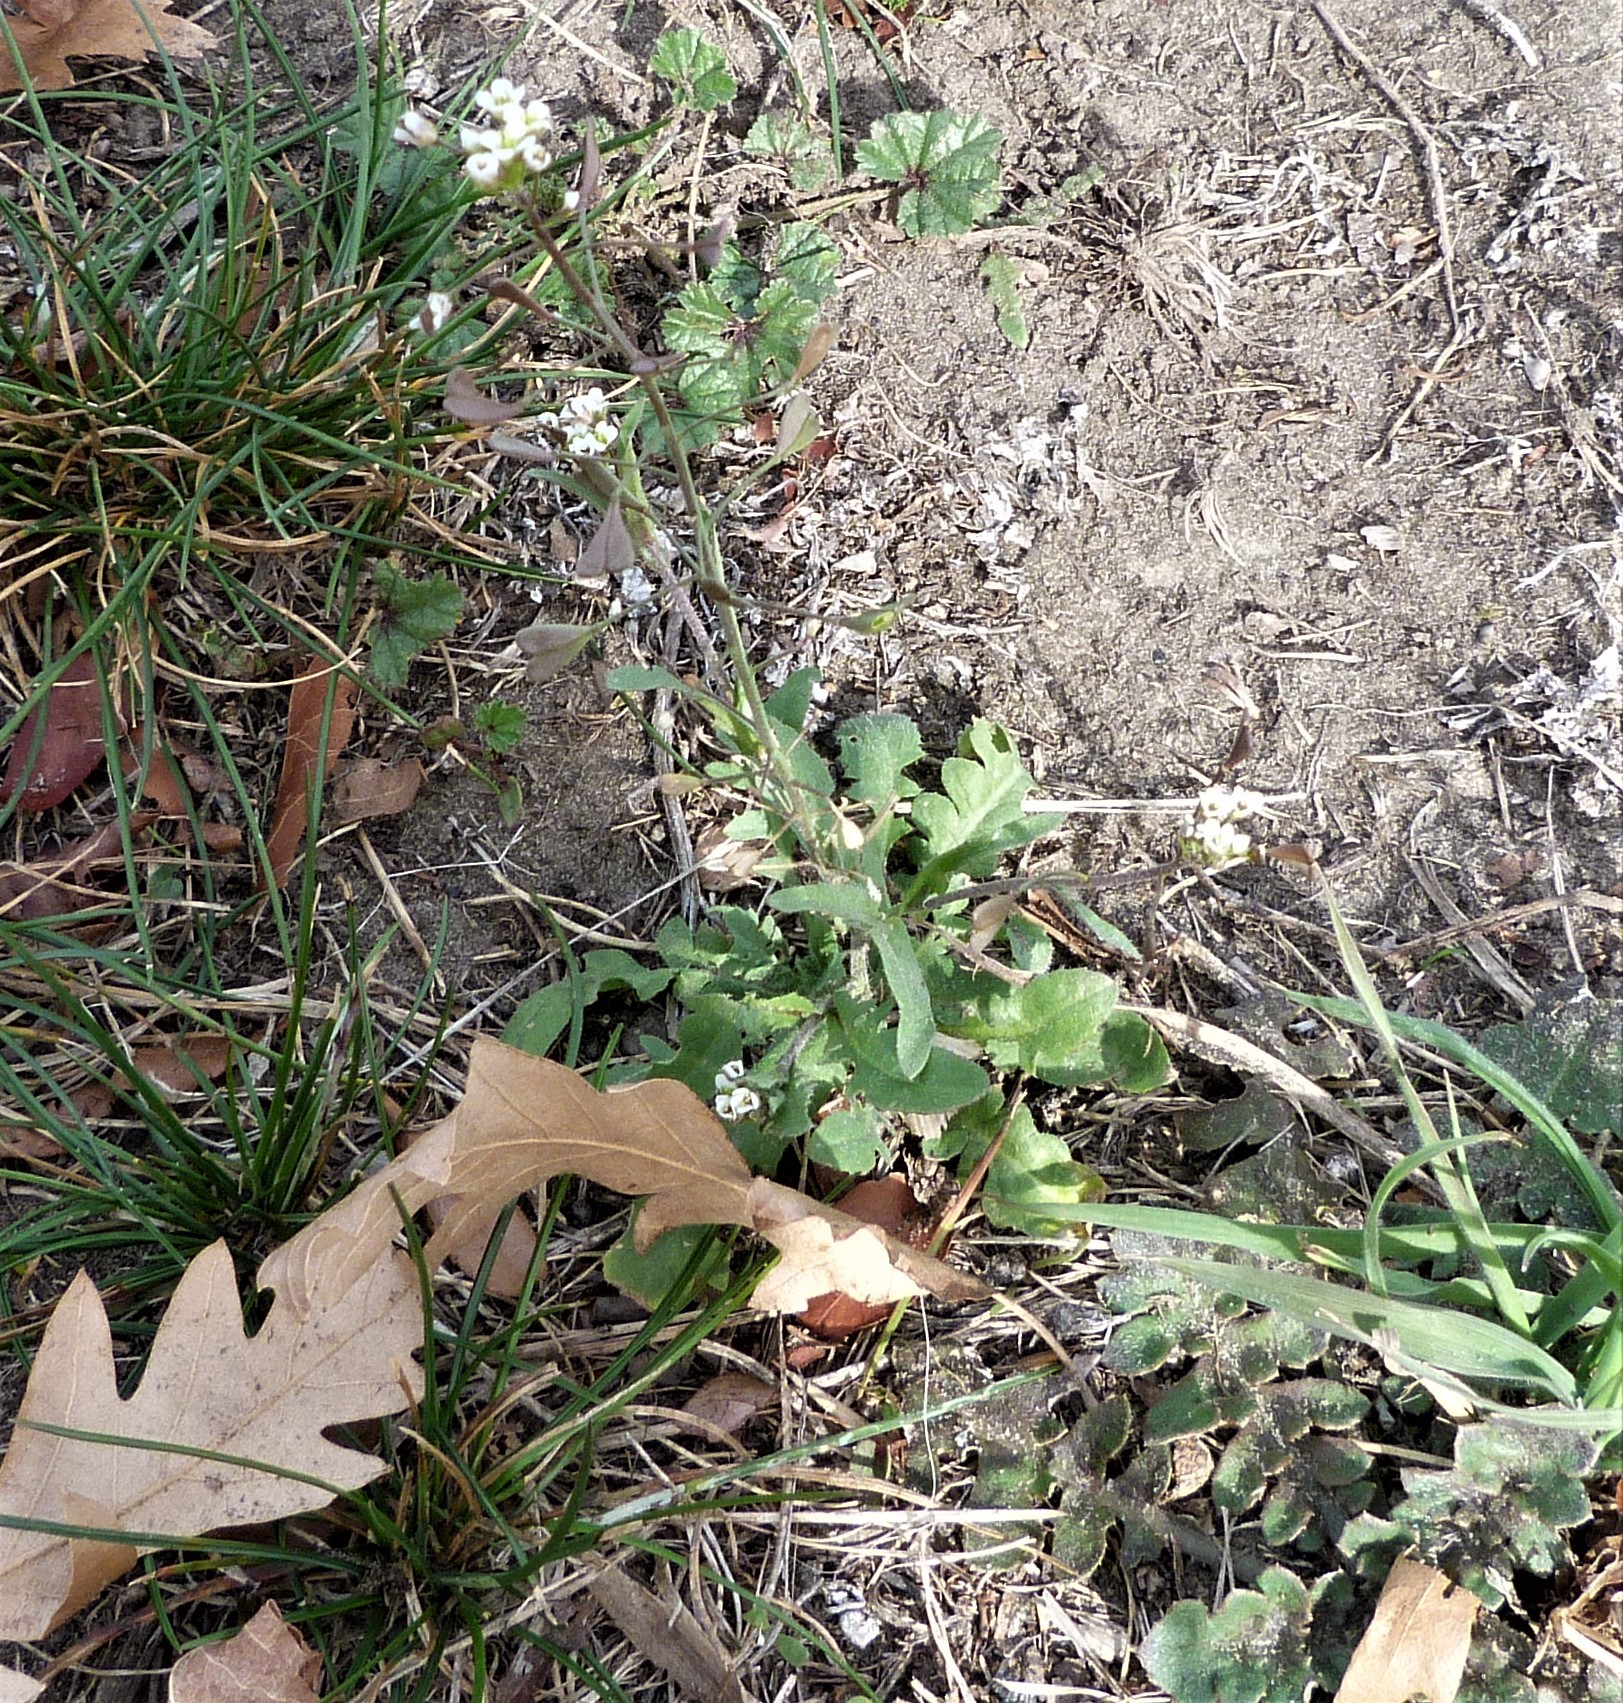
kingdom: Plantae
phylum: Tracheophyta
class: Magnoliopsida
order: Brassicales
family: Brassicaceae
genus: Capsella
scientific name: Capsella bursa-pastoris
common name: Shepherd's purse
